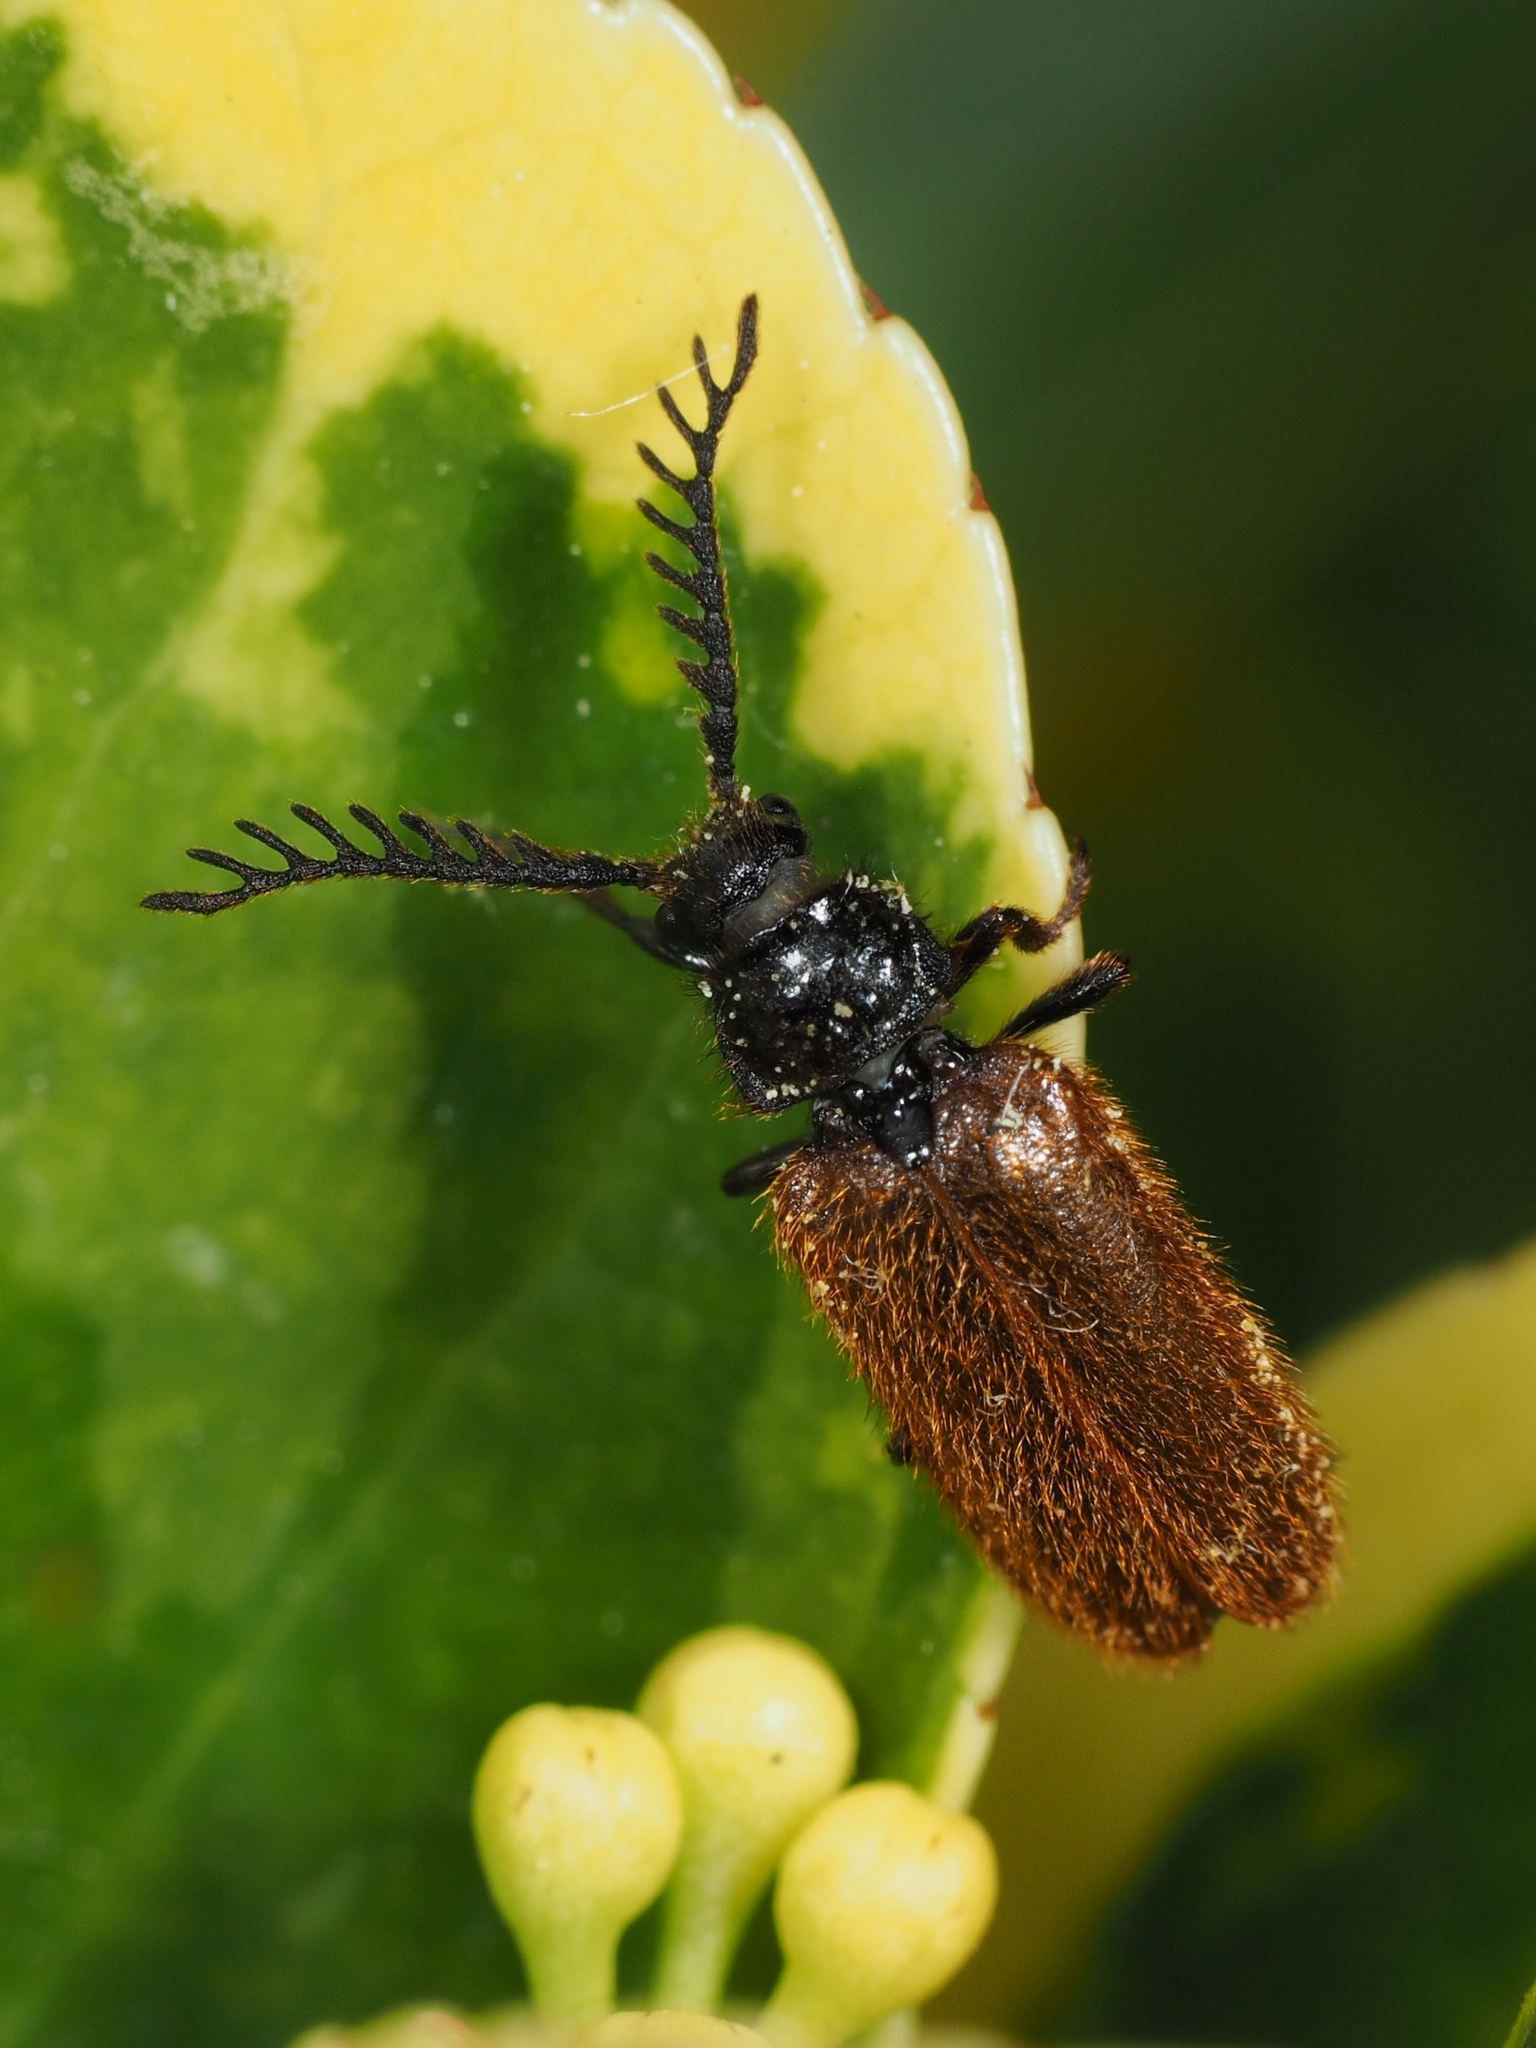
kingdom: Animalia
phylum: Arthropoda
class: Insecta
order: Coleoptera
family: Drilidae
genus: Drilus
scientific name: Drilus flavescens
